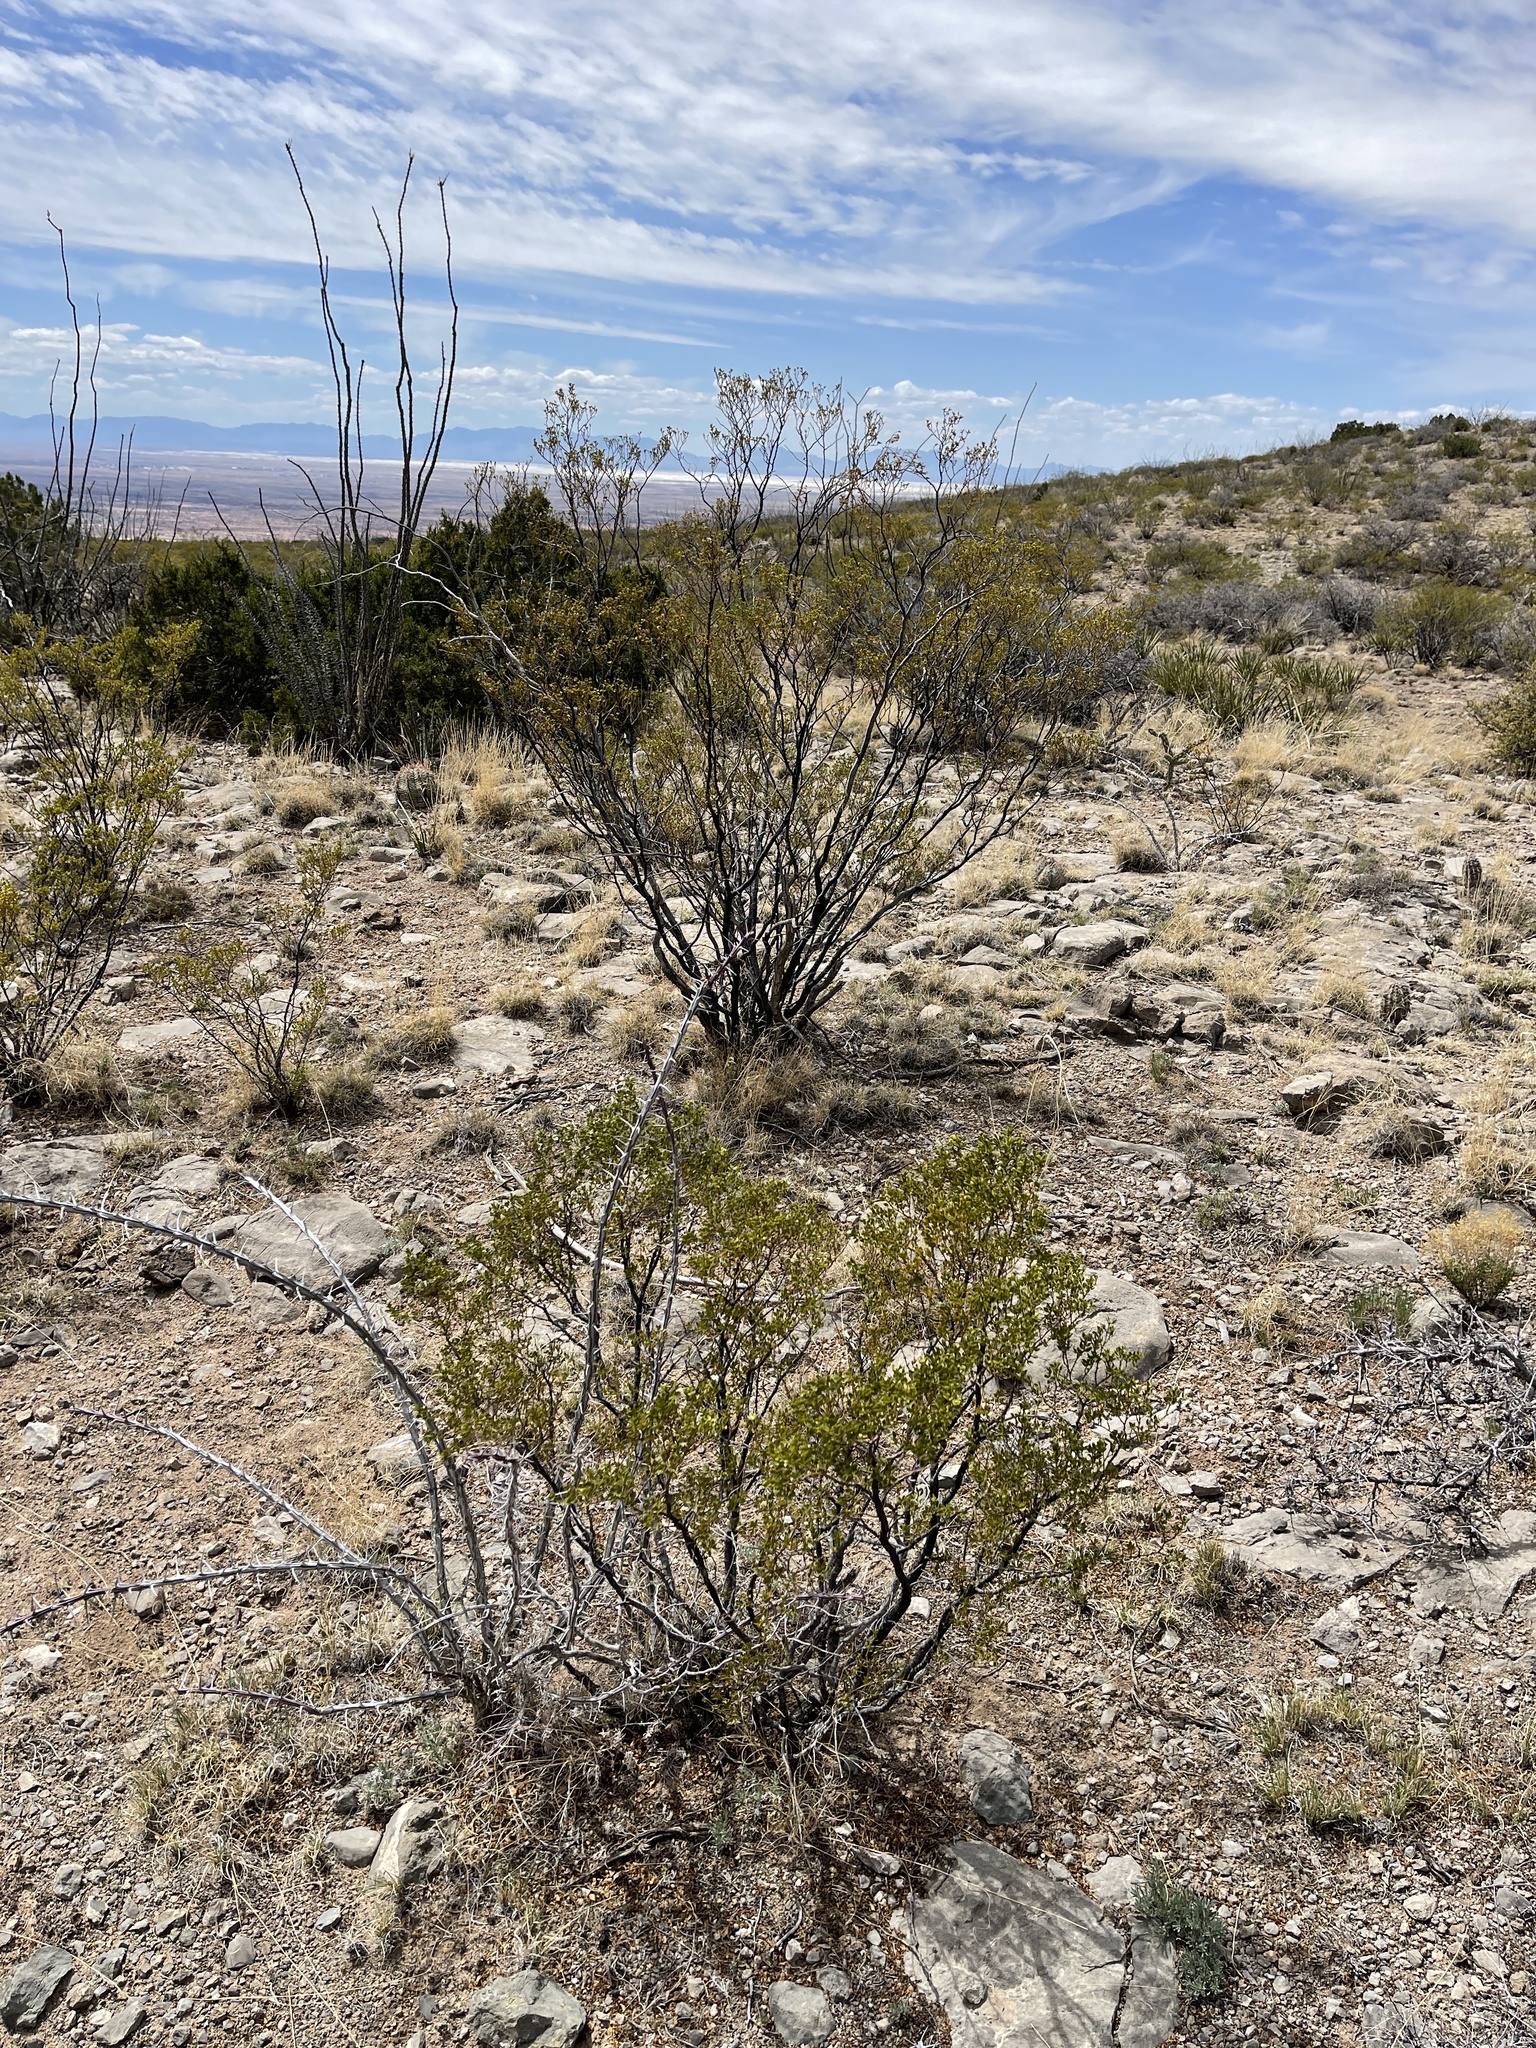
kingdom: Plantae
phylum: Tracheophyta
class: Magnoliopsida
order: Zygophyllales
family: Zygophyllaceae
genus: Larrea
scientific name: Larrea tridentata
